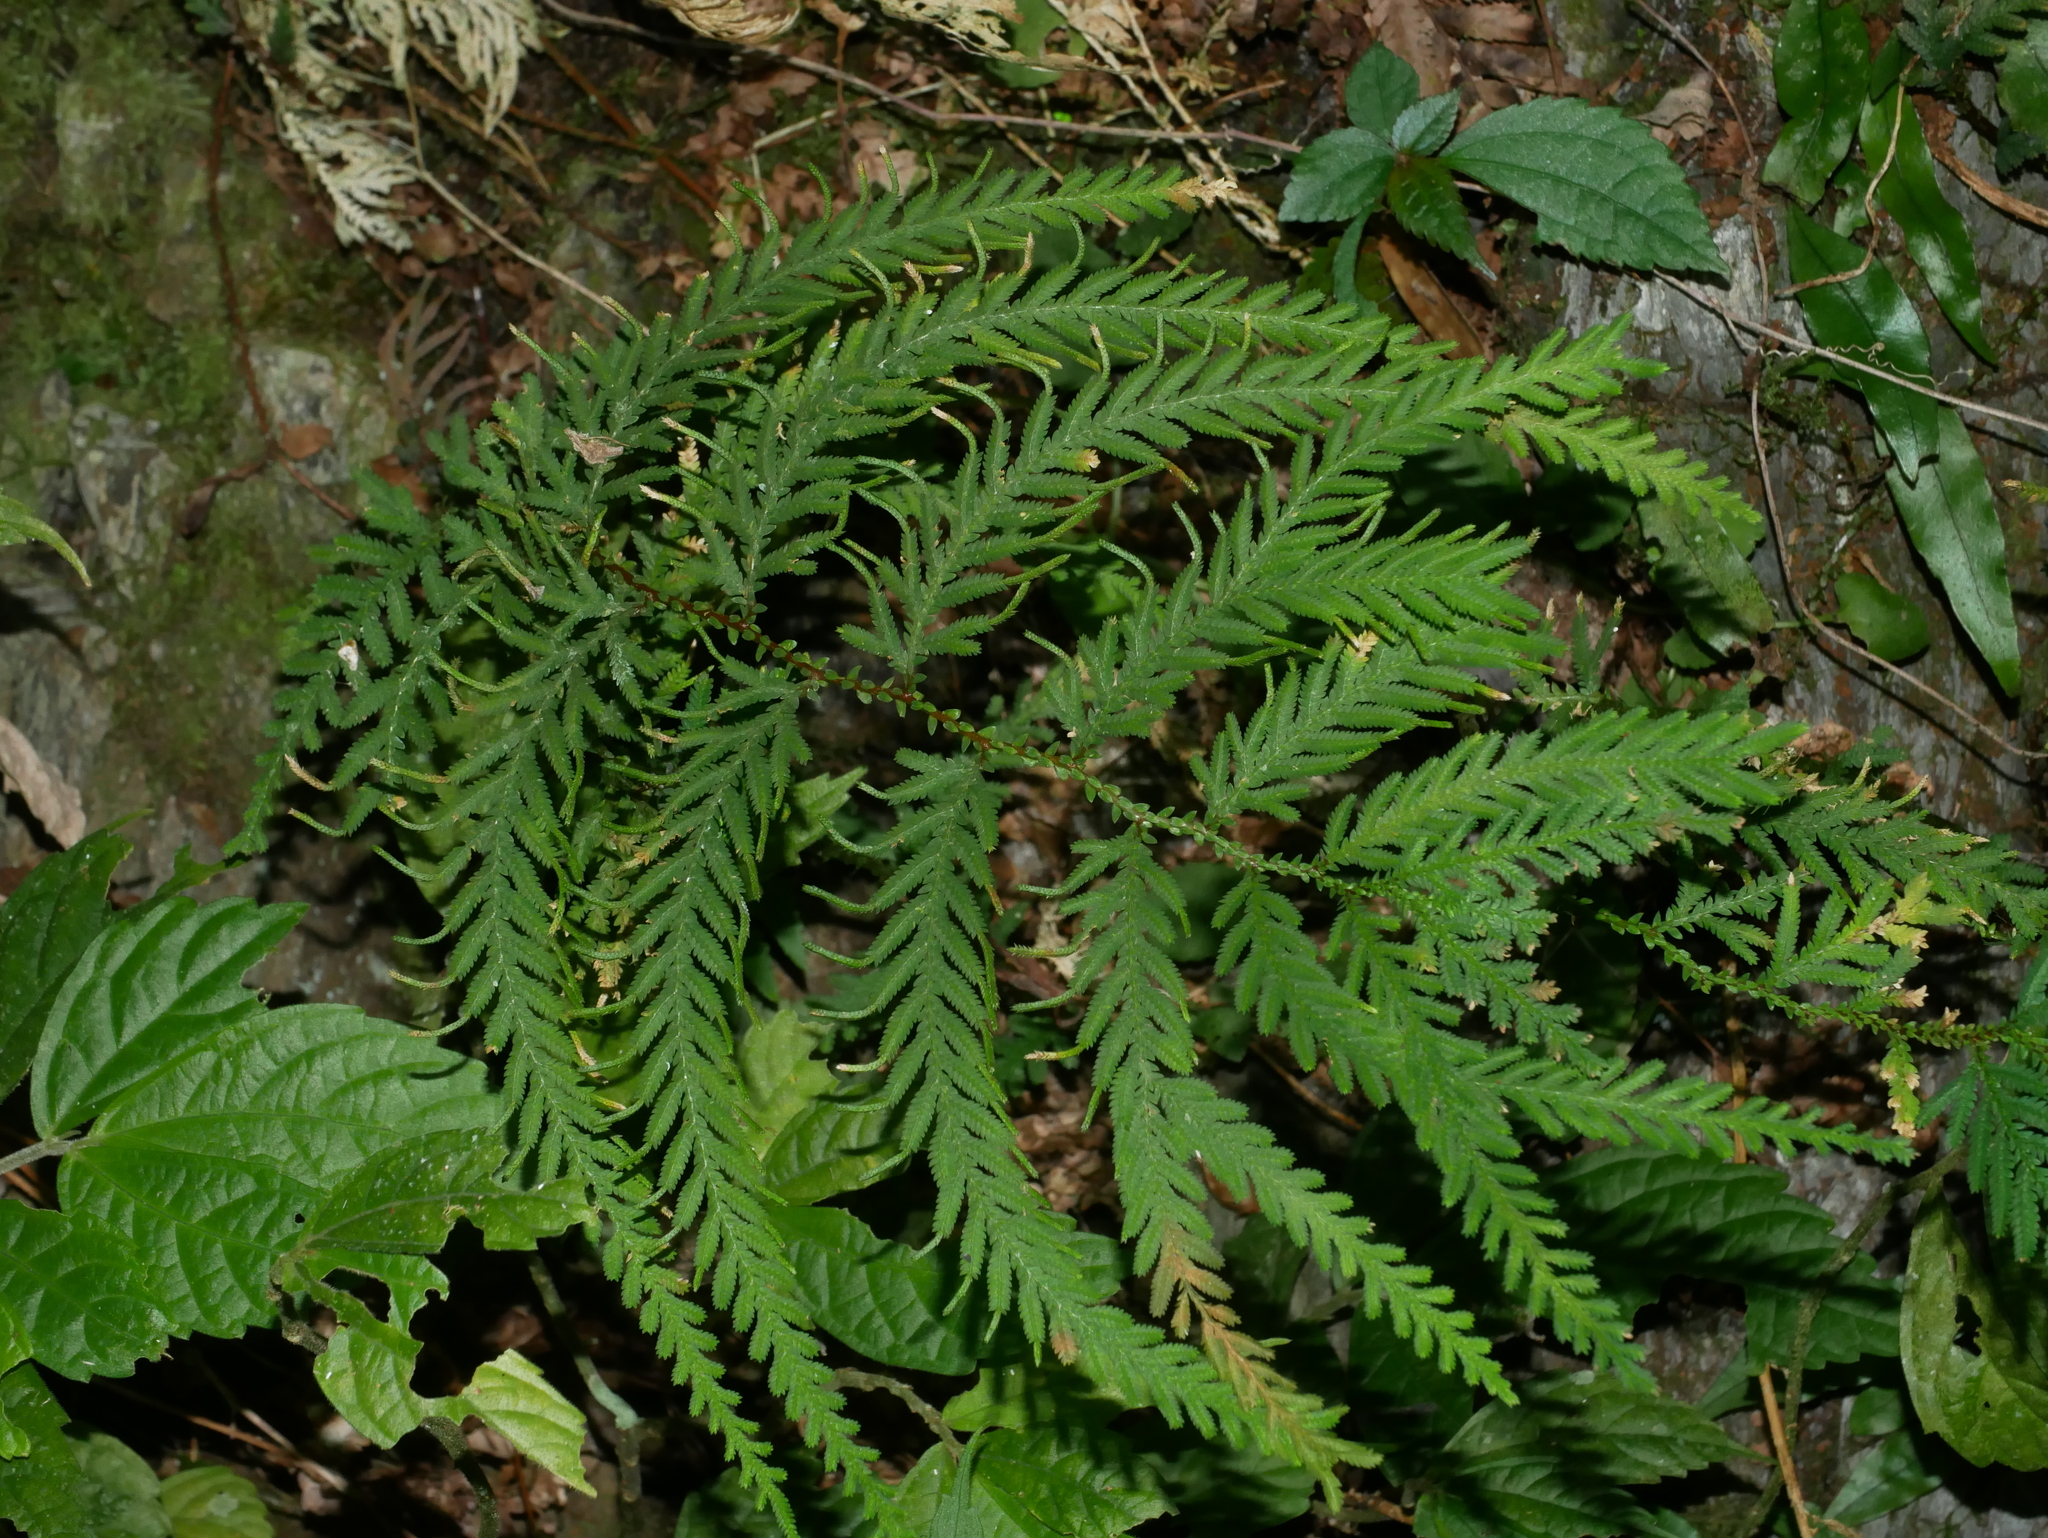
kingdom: Plantae
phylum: Tracheophyta
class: Lycopodiopsida
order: Selaginellales
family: Selaginellaceae
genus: Selaginella
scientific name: Selaginella delicatula
